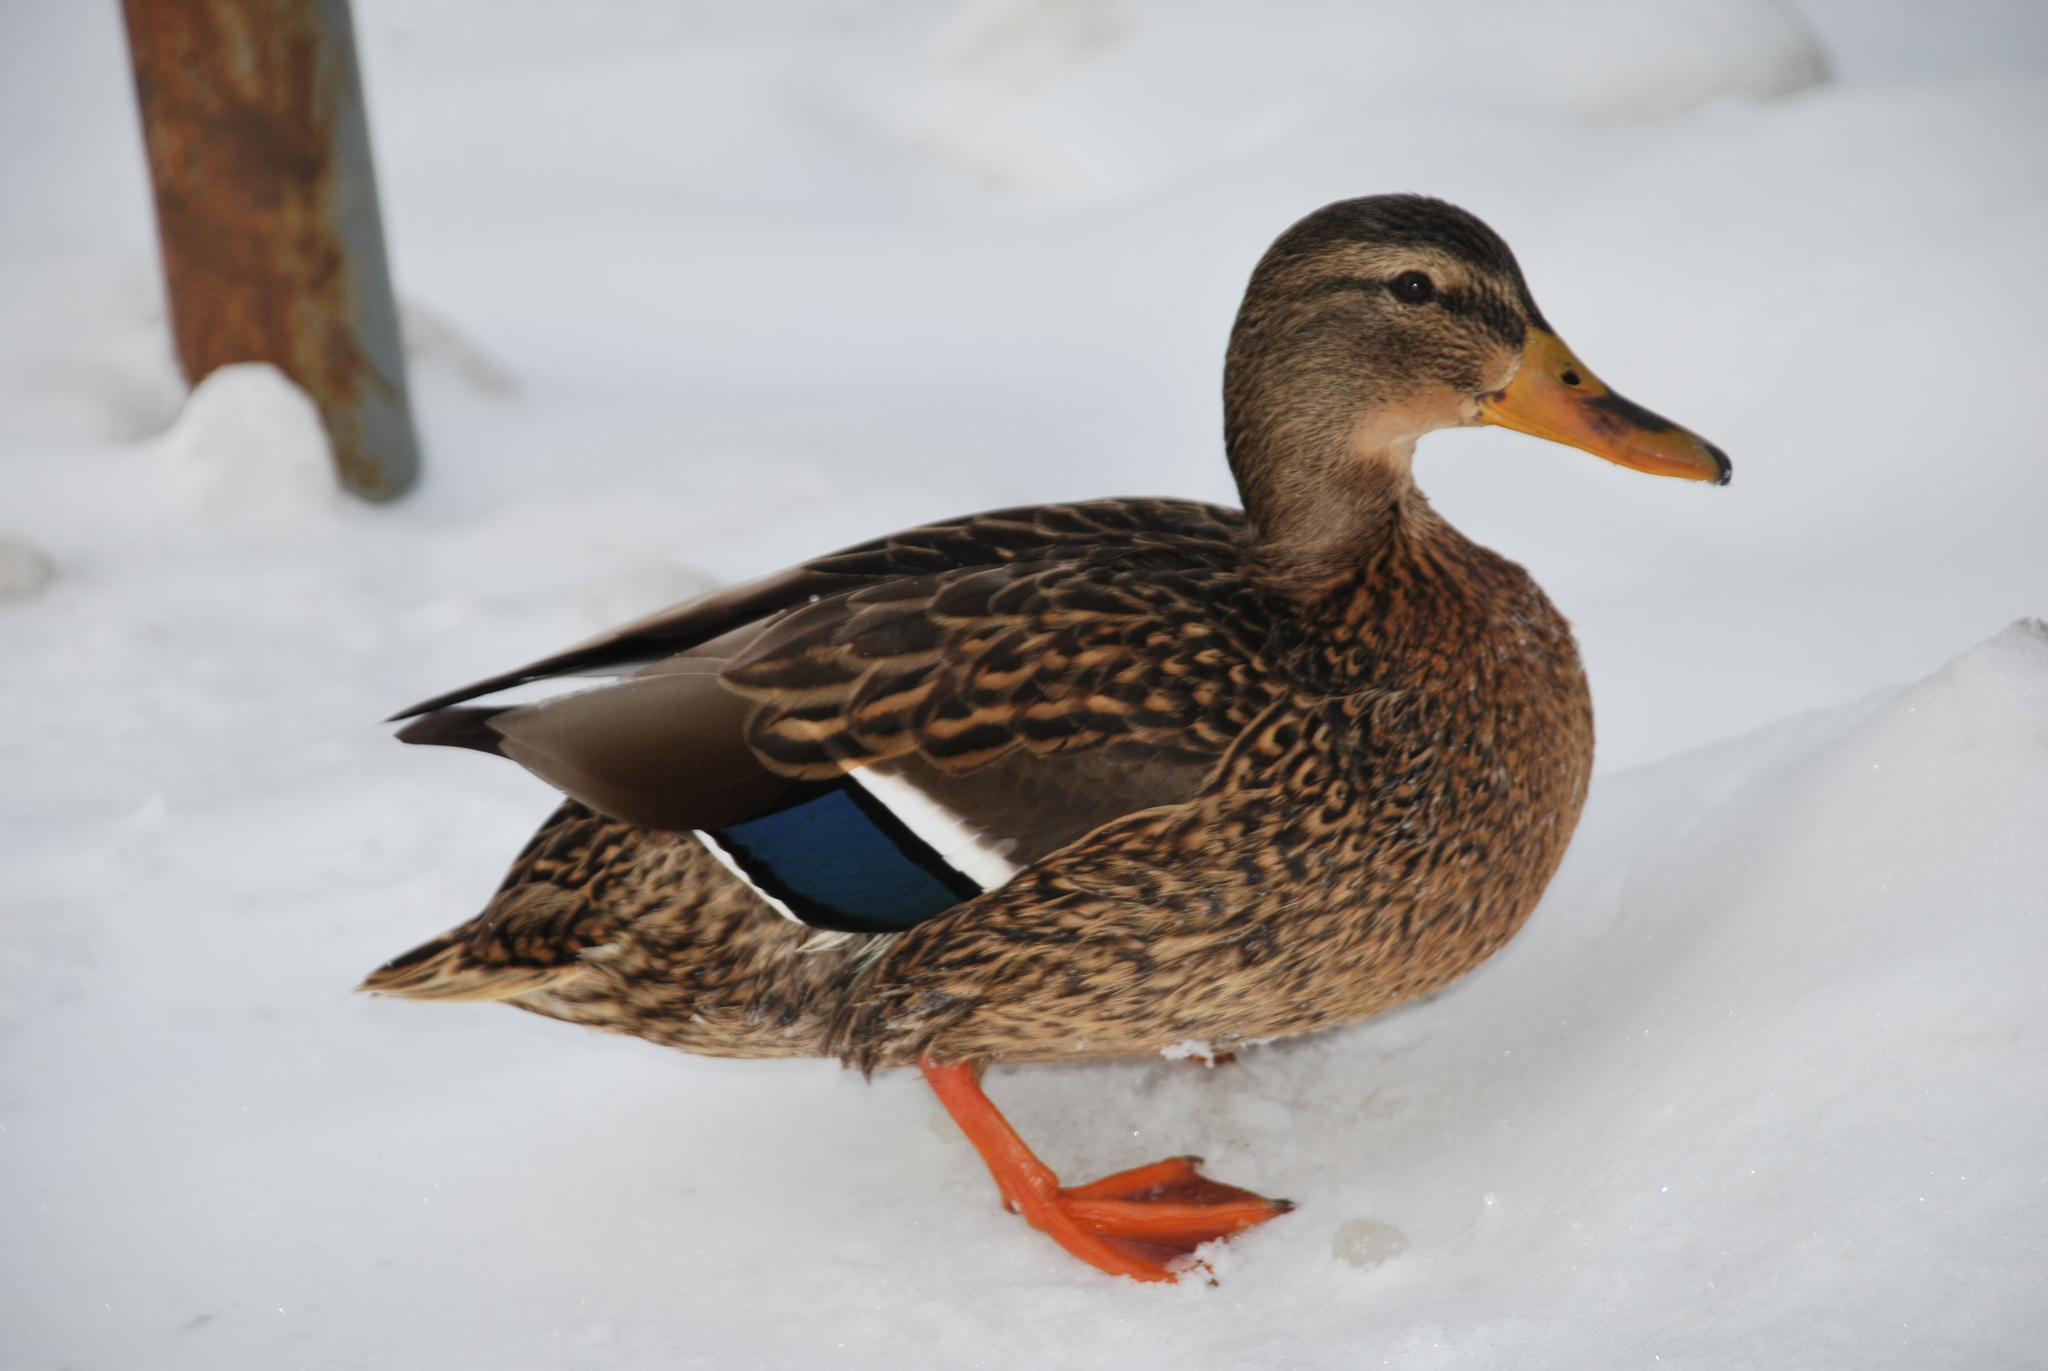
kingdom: Animalia
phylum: Chordata
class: Aves
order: Anseriformes
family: Anatidae
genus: Anas
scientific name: Anas platyrhynchos
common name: Mallard
